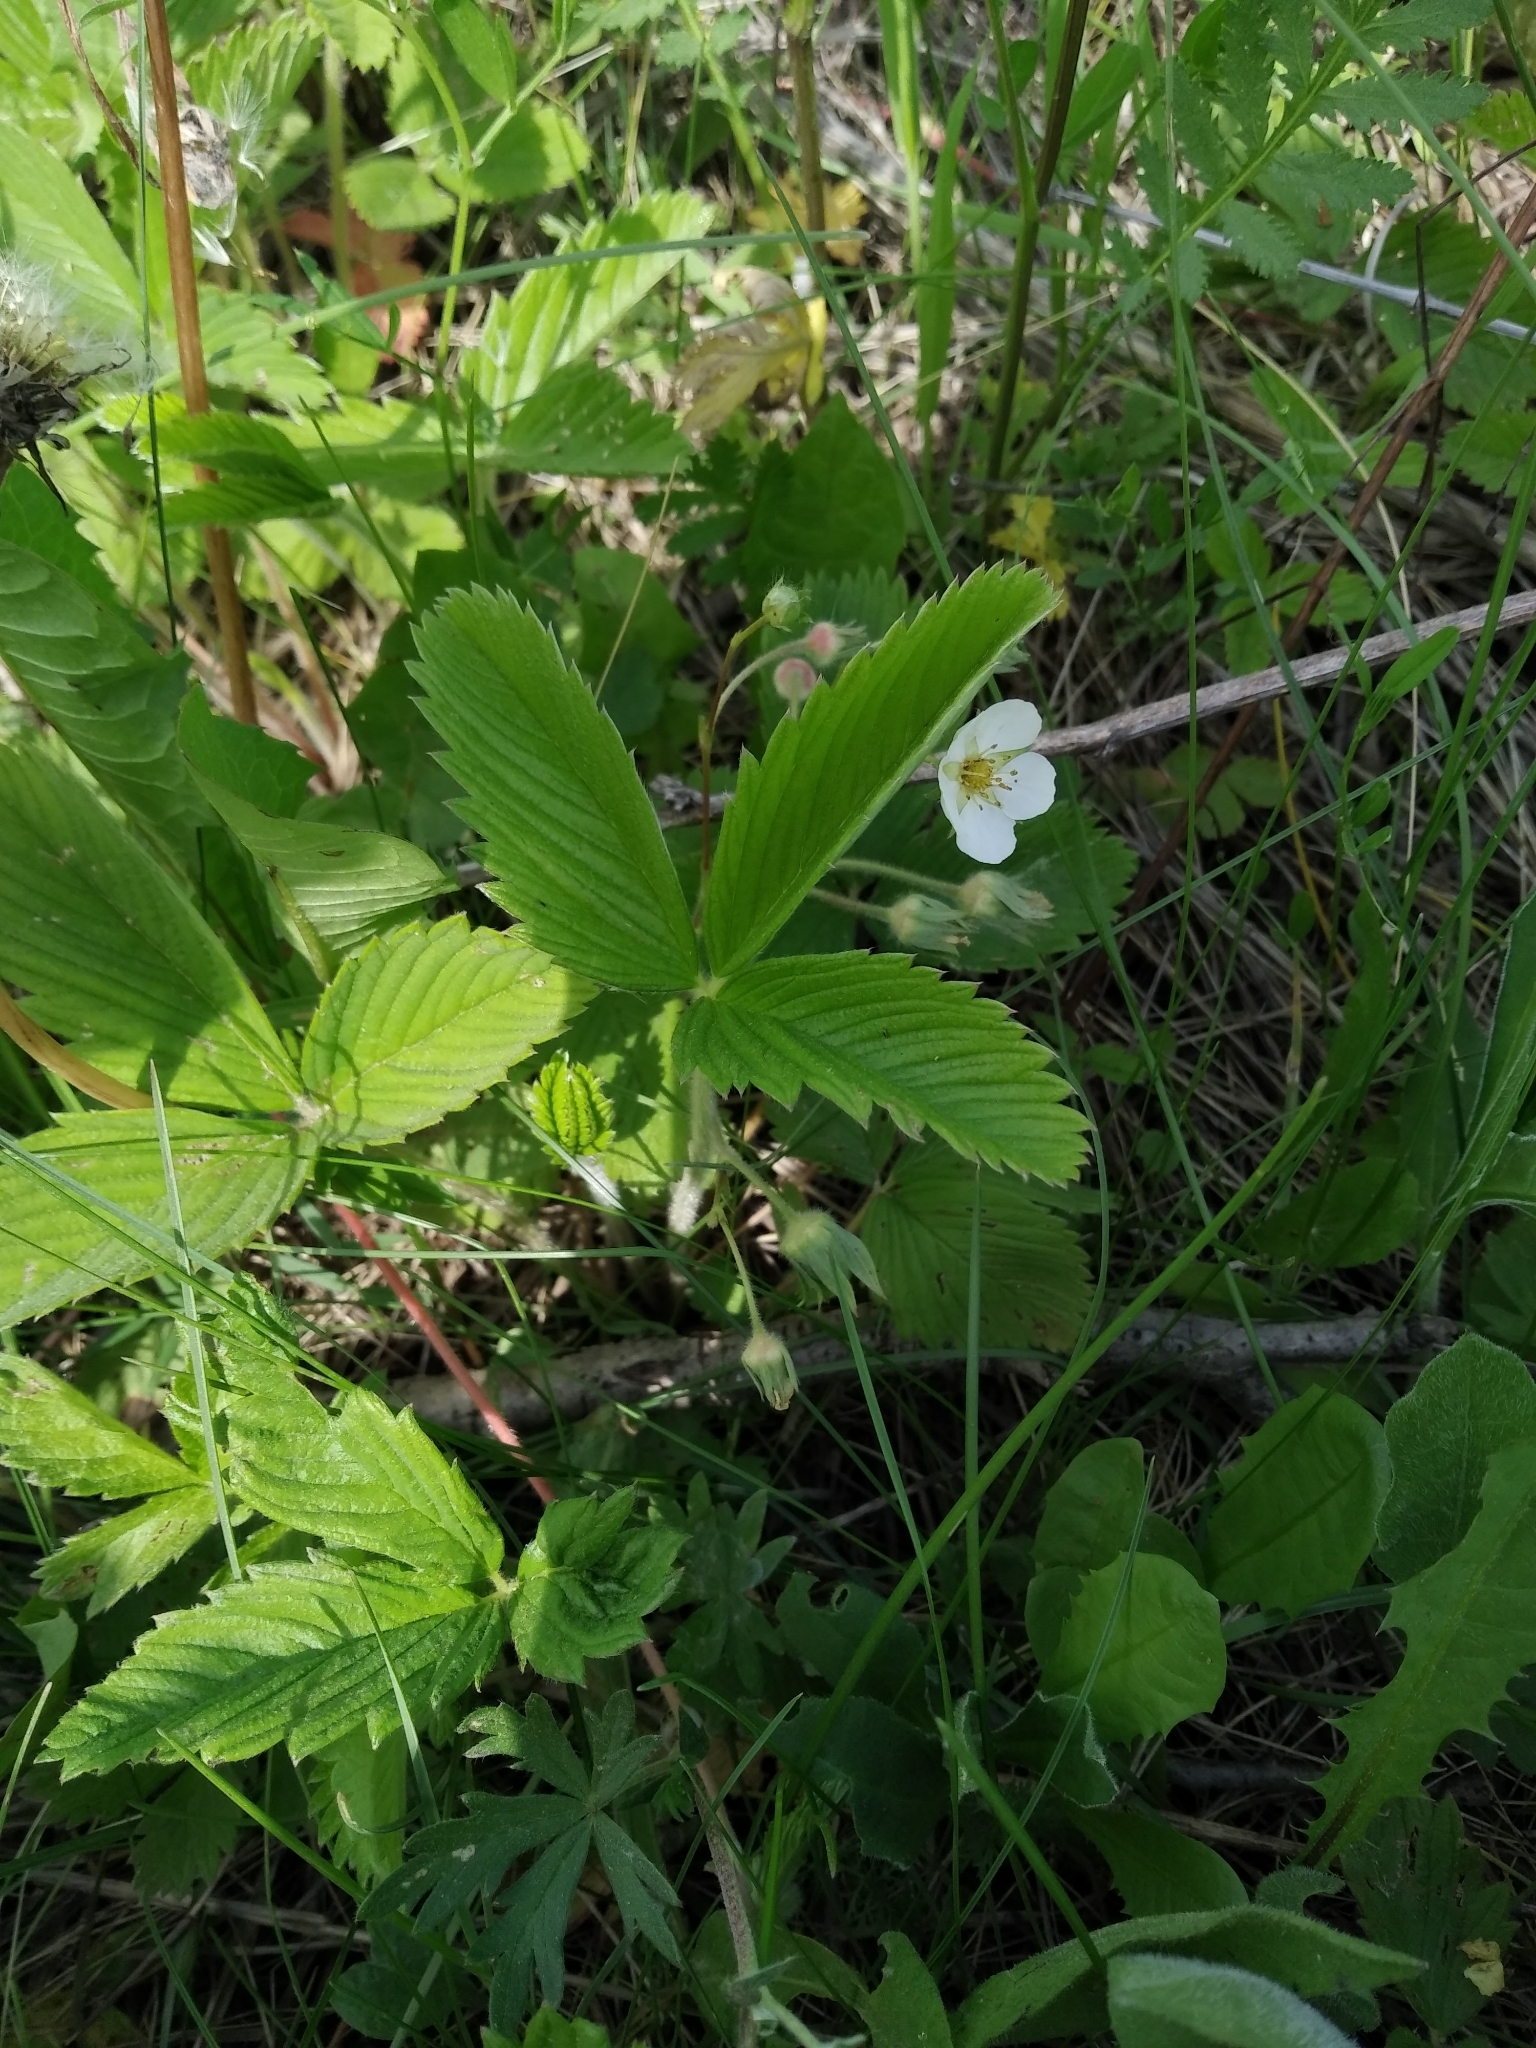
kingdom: Plantae
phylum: Tracheophyta
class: Magnoliopsida
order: Rosales
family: Rosaceae
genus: Fragaria
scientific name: Fragaria viridis
